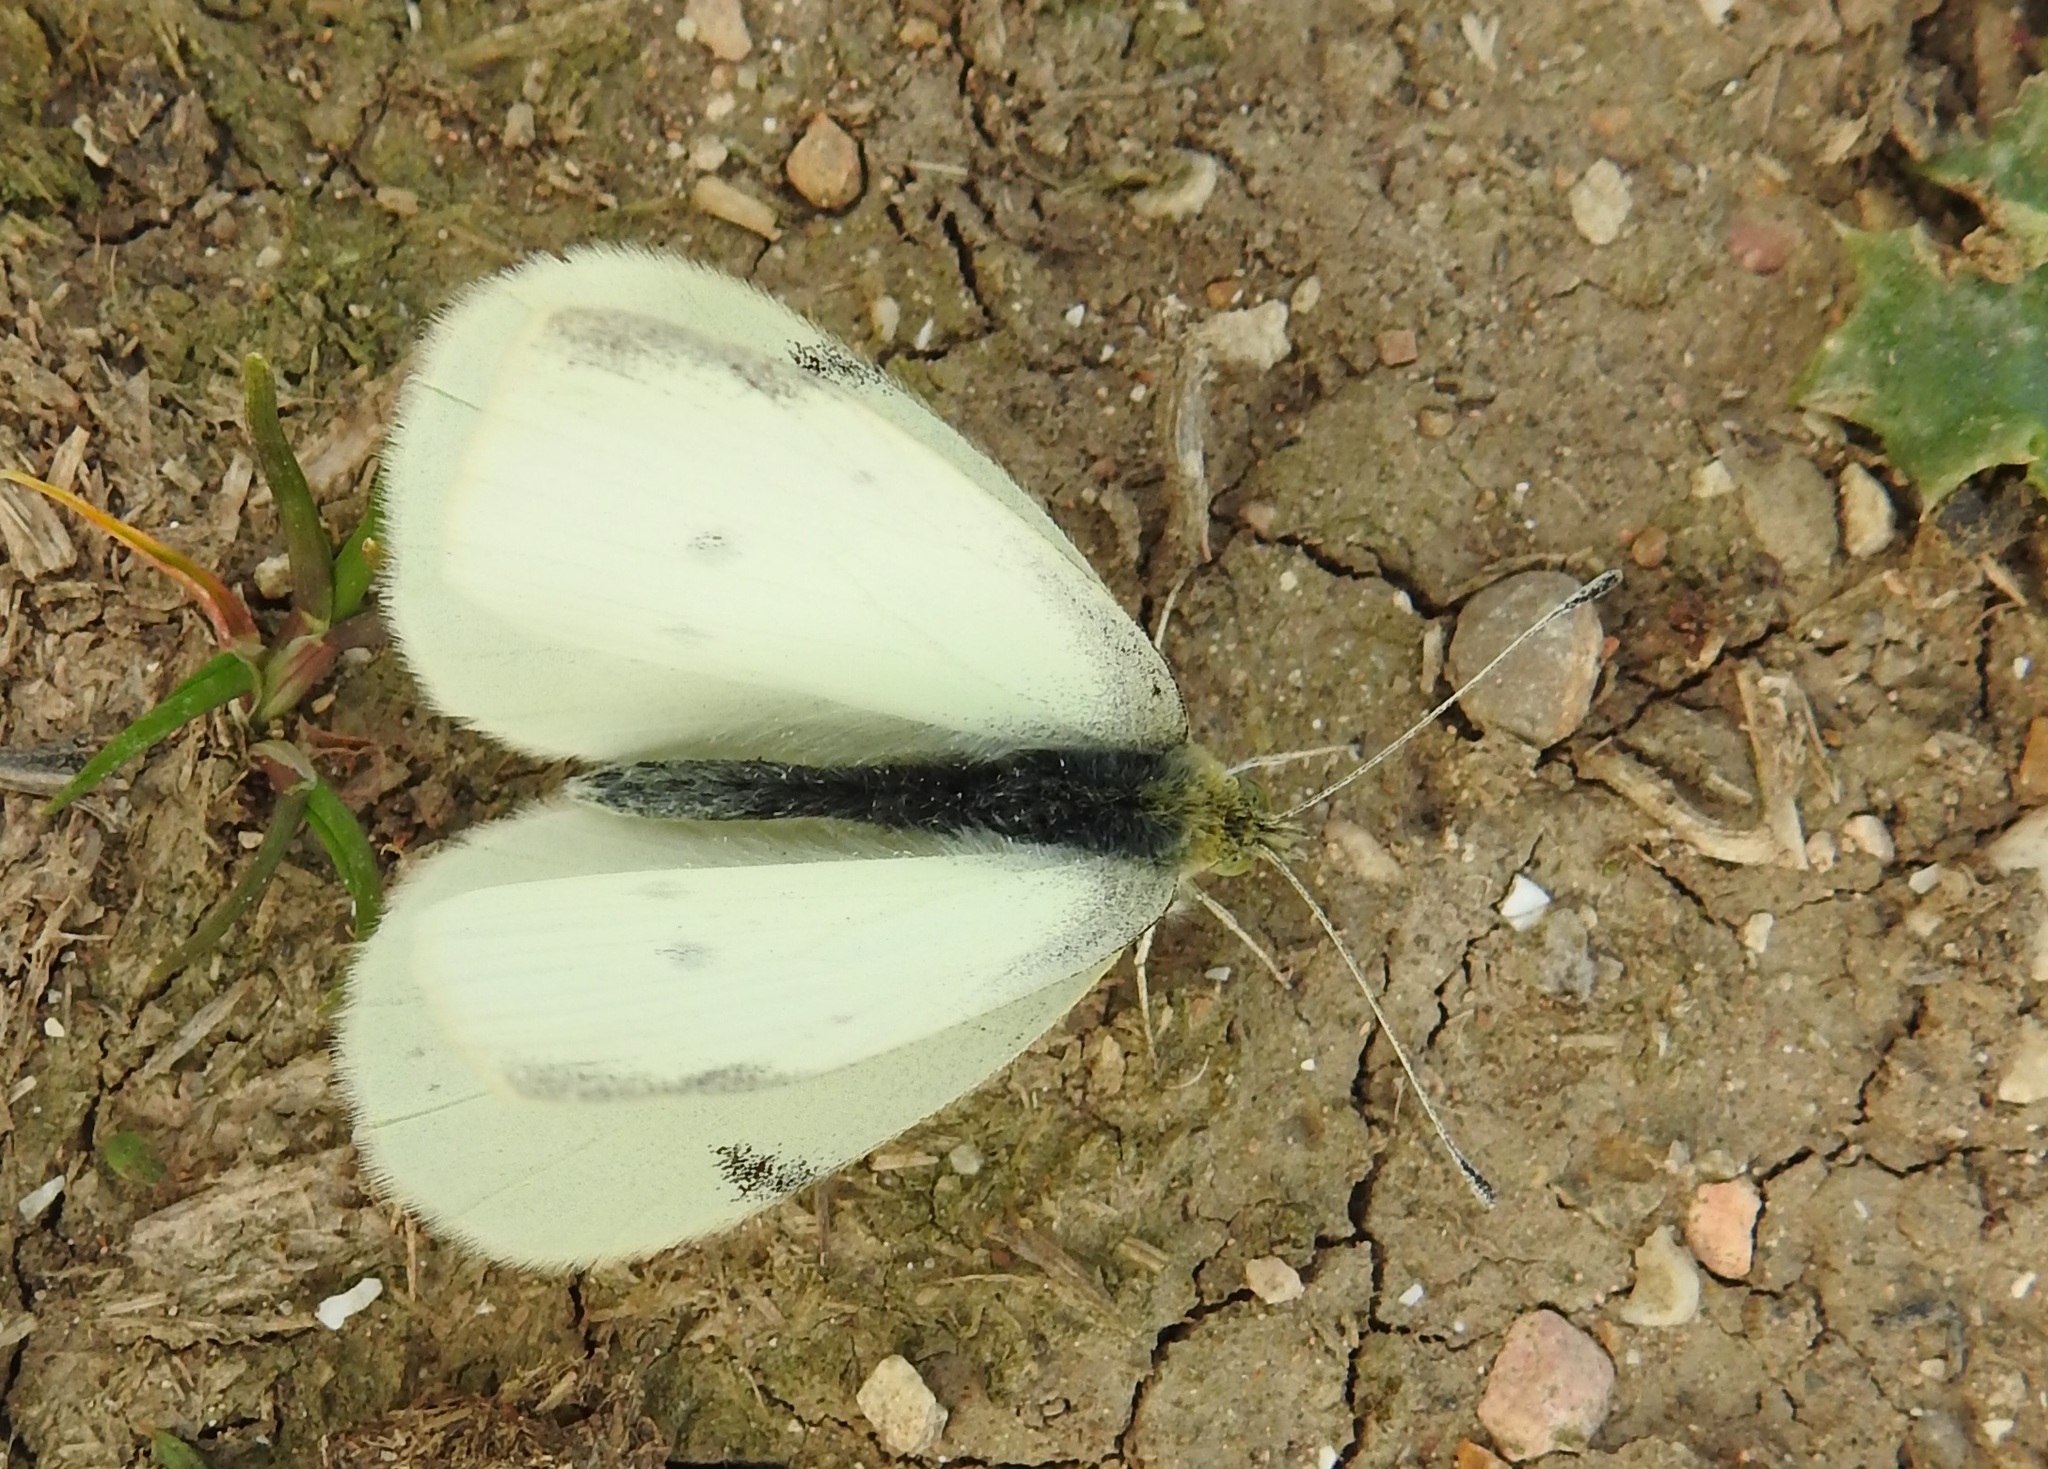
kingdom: Animalia
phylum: Arthropoda
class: Insecta
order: Lepidoptera
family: Pieridae
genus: Pieris
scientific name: Pieris rapae
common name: Small white
